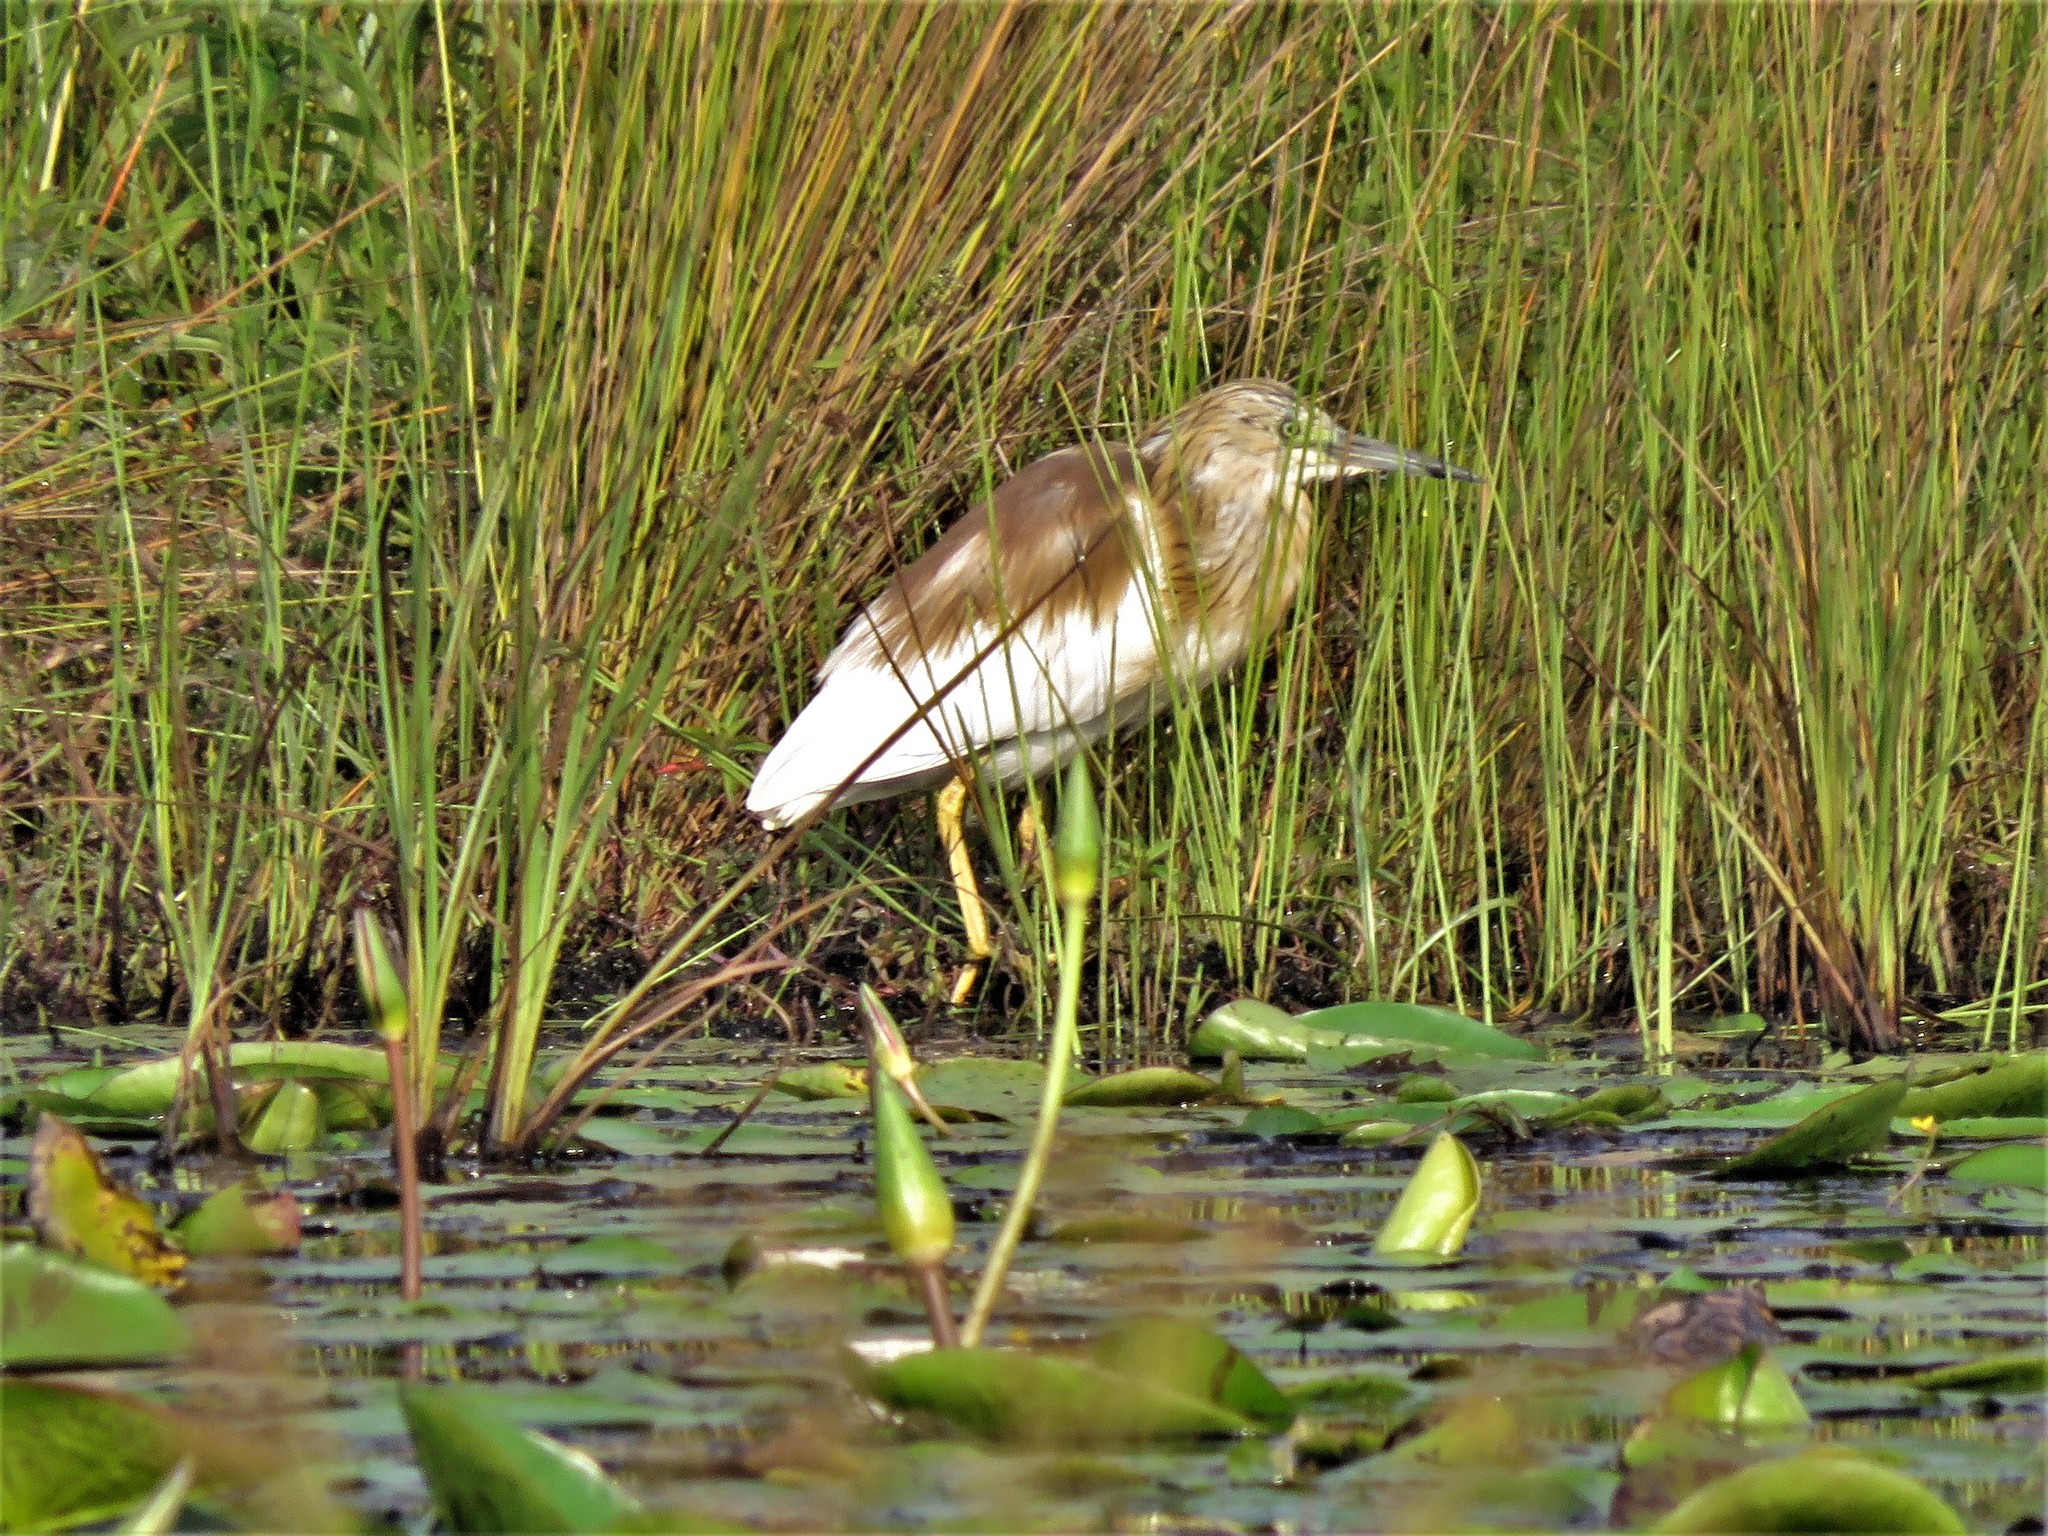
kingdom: Animalia
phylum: Chordata
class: Aves
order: Pelecaniformes
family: Ardeidae
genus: Ardeola
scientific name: Ardeola ralloides
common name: Squacco heron
